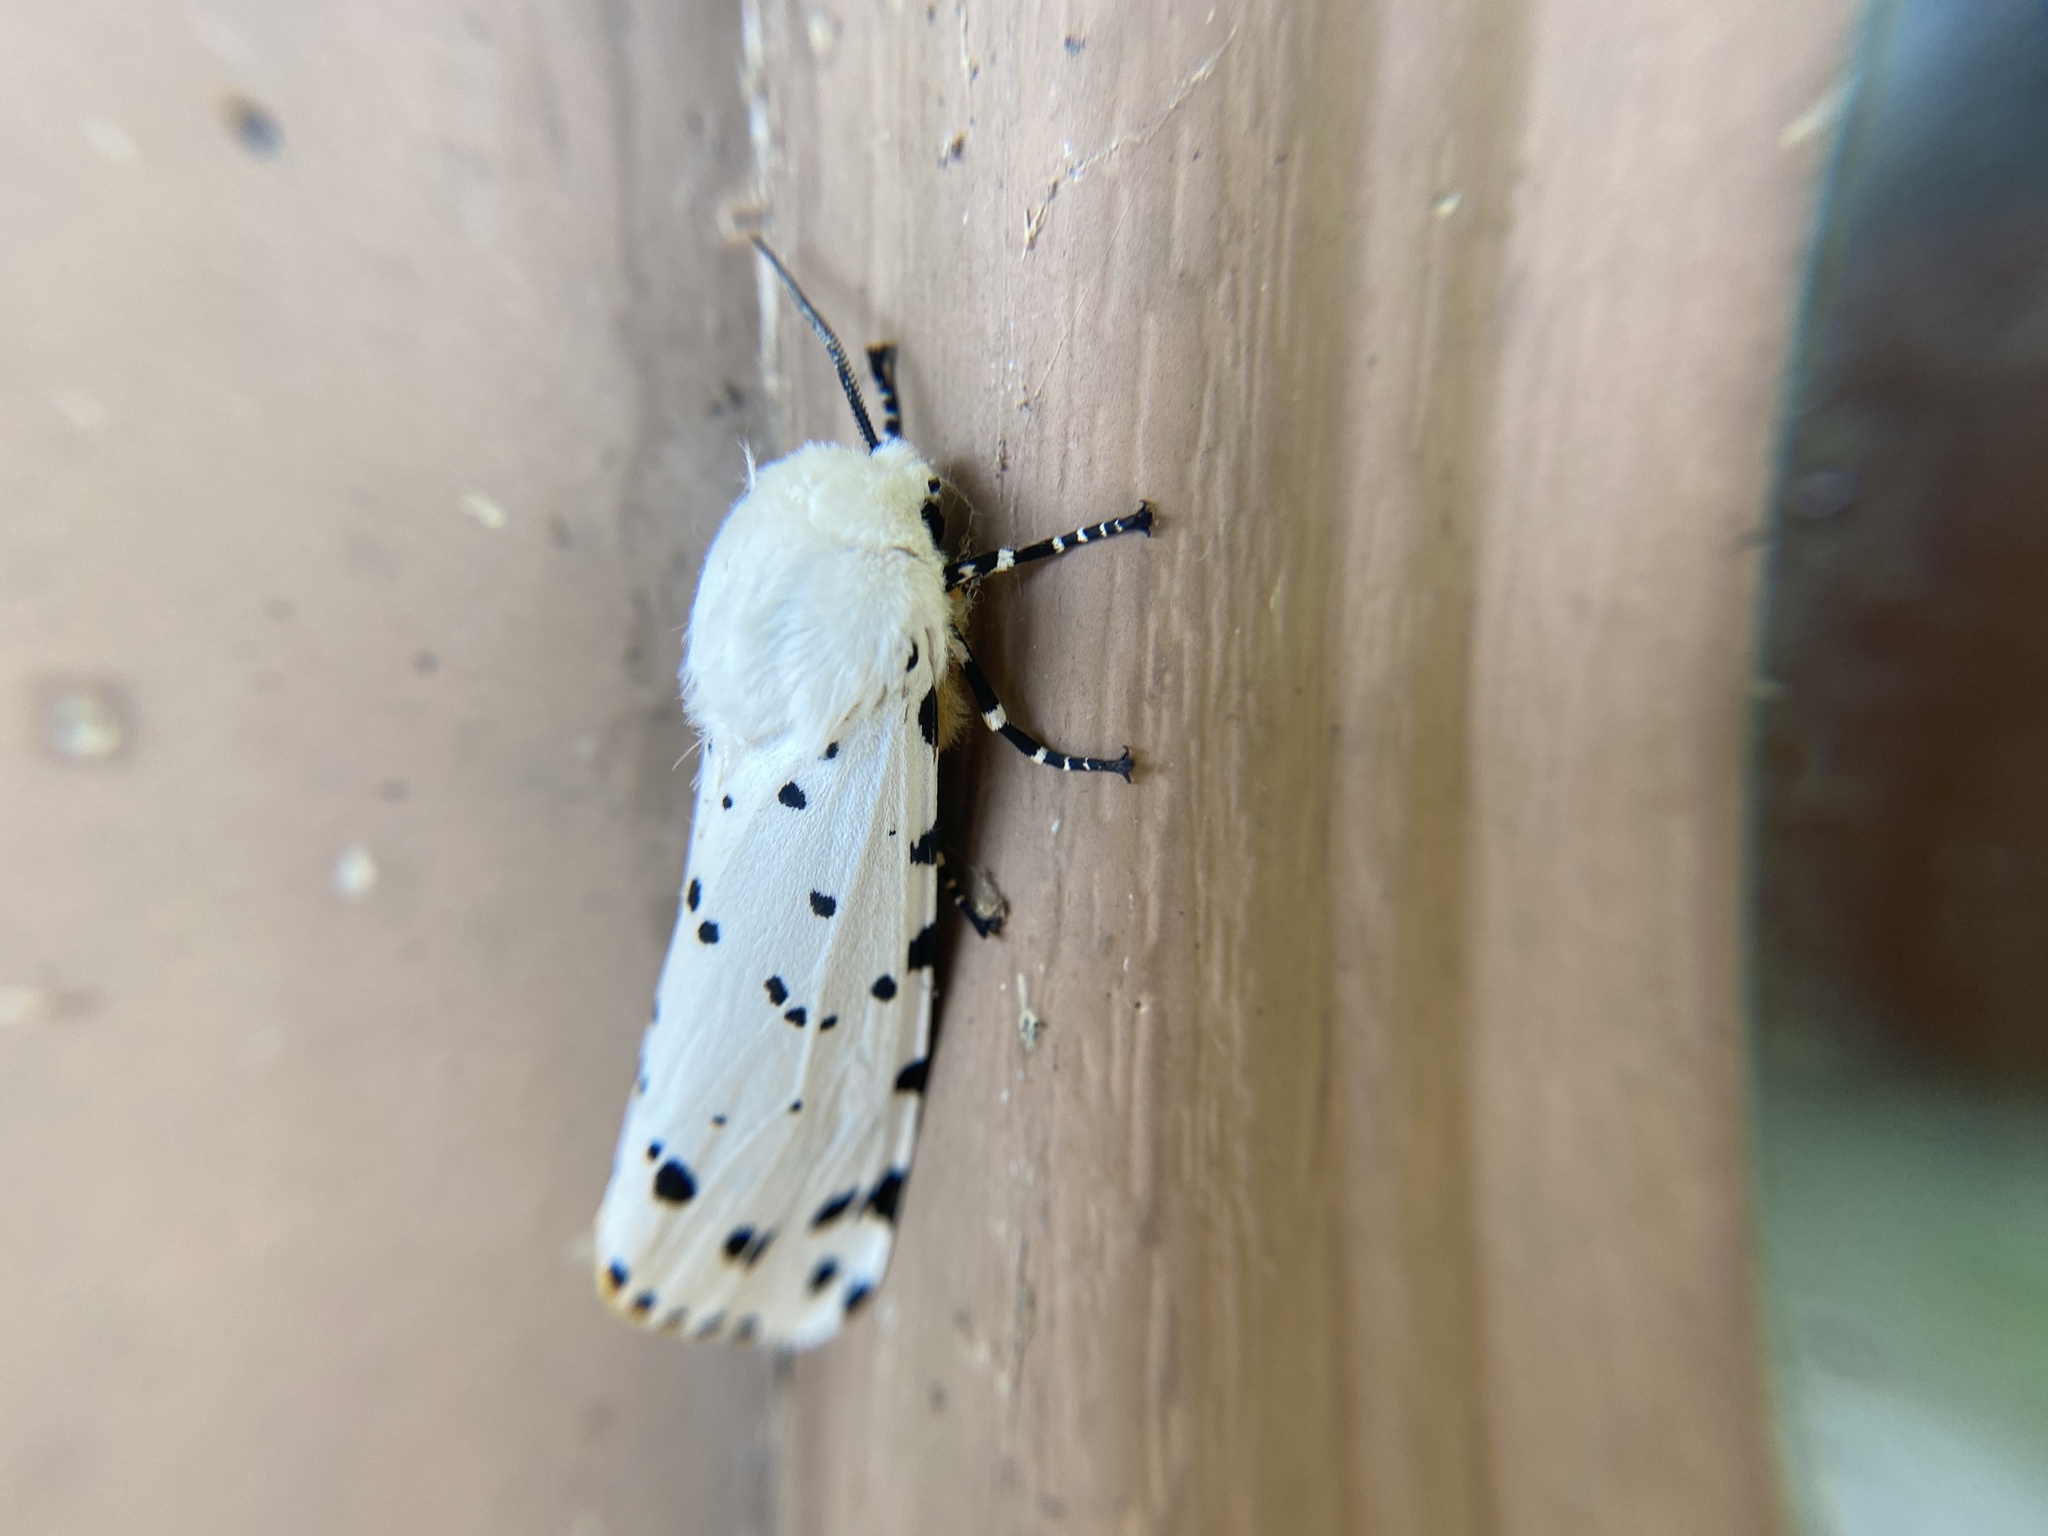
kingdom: Animalia
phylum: Arthropoda
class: Insecta
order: Lepidoptera
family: Erebidae
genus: Estigmene
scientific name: Estigmene acrea
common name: Salt marsh moth
